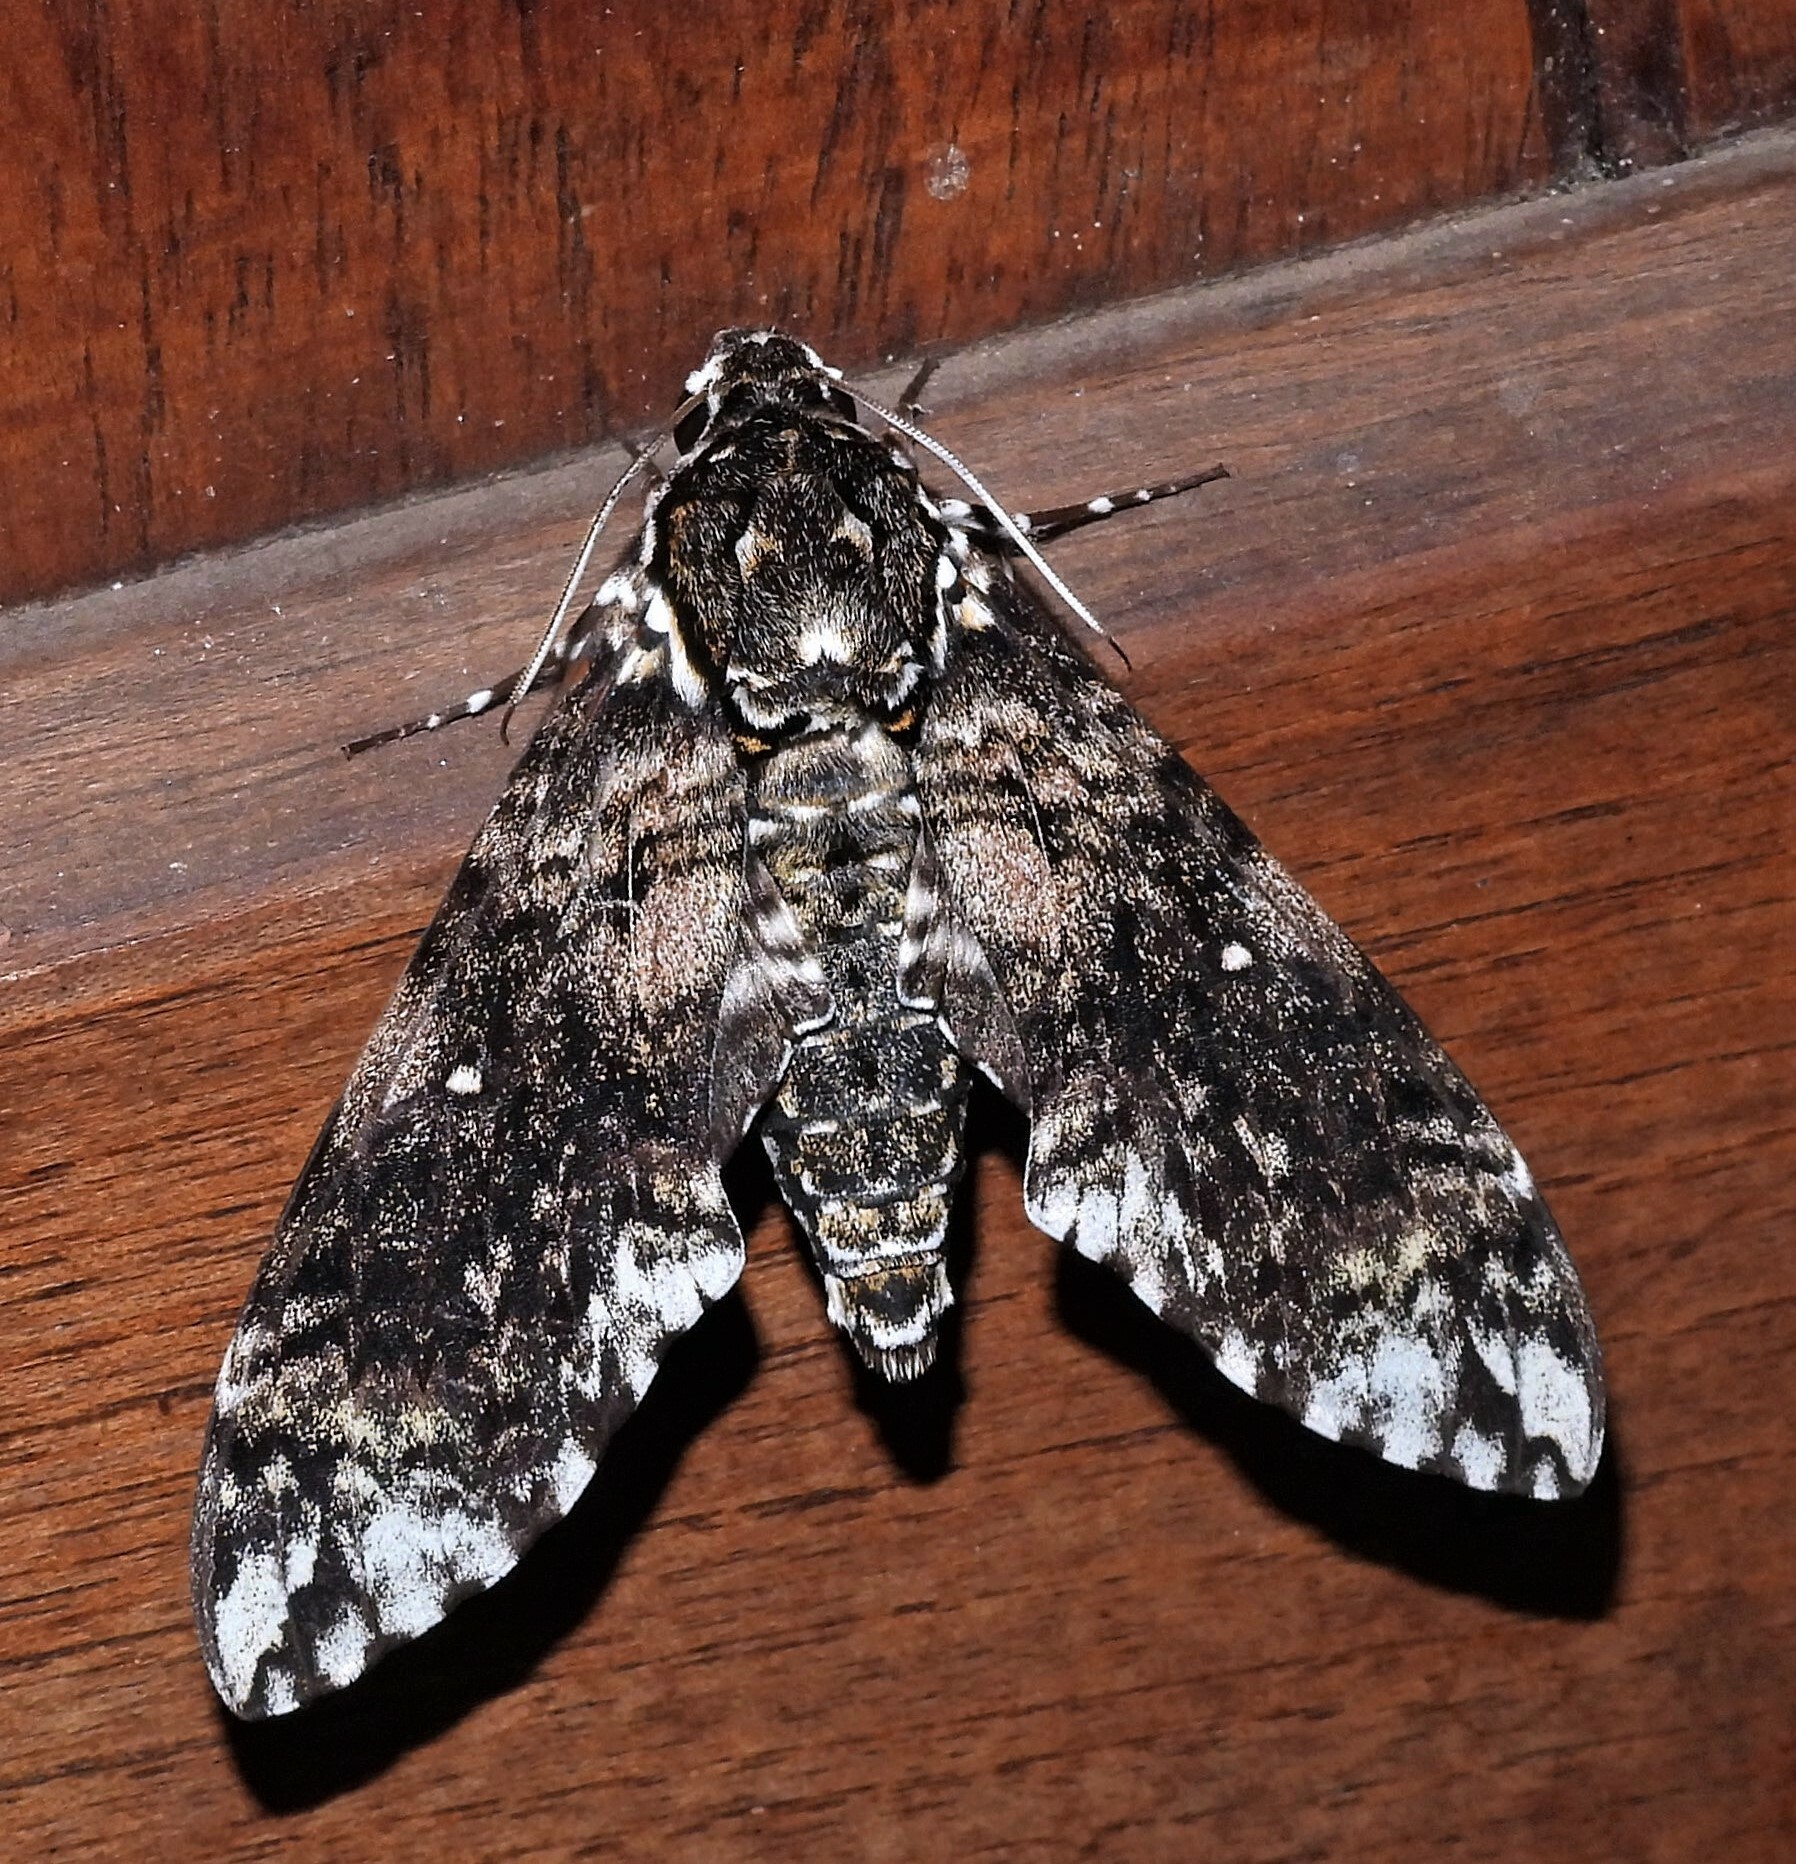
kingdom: Animalia
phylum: Arthropoda
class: Insecta
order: Lepidoptera
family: Sphingidae
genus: Manduca
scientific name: Manduca leucospila
